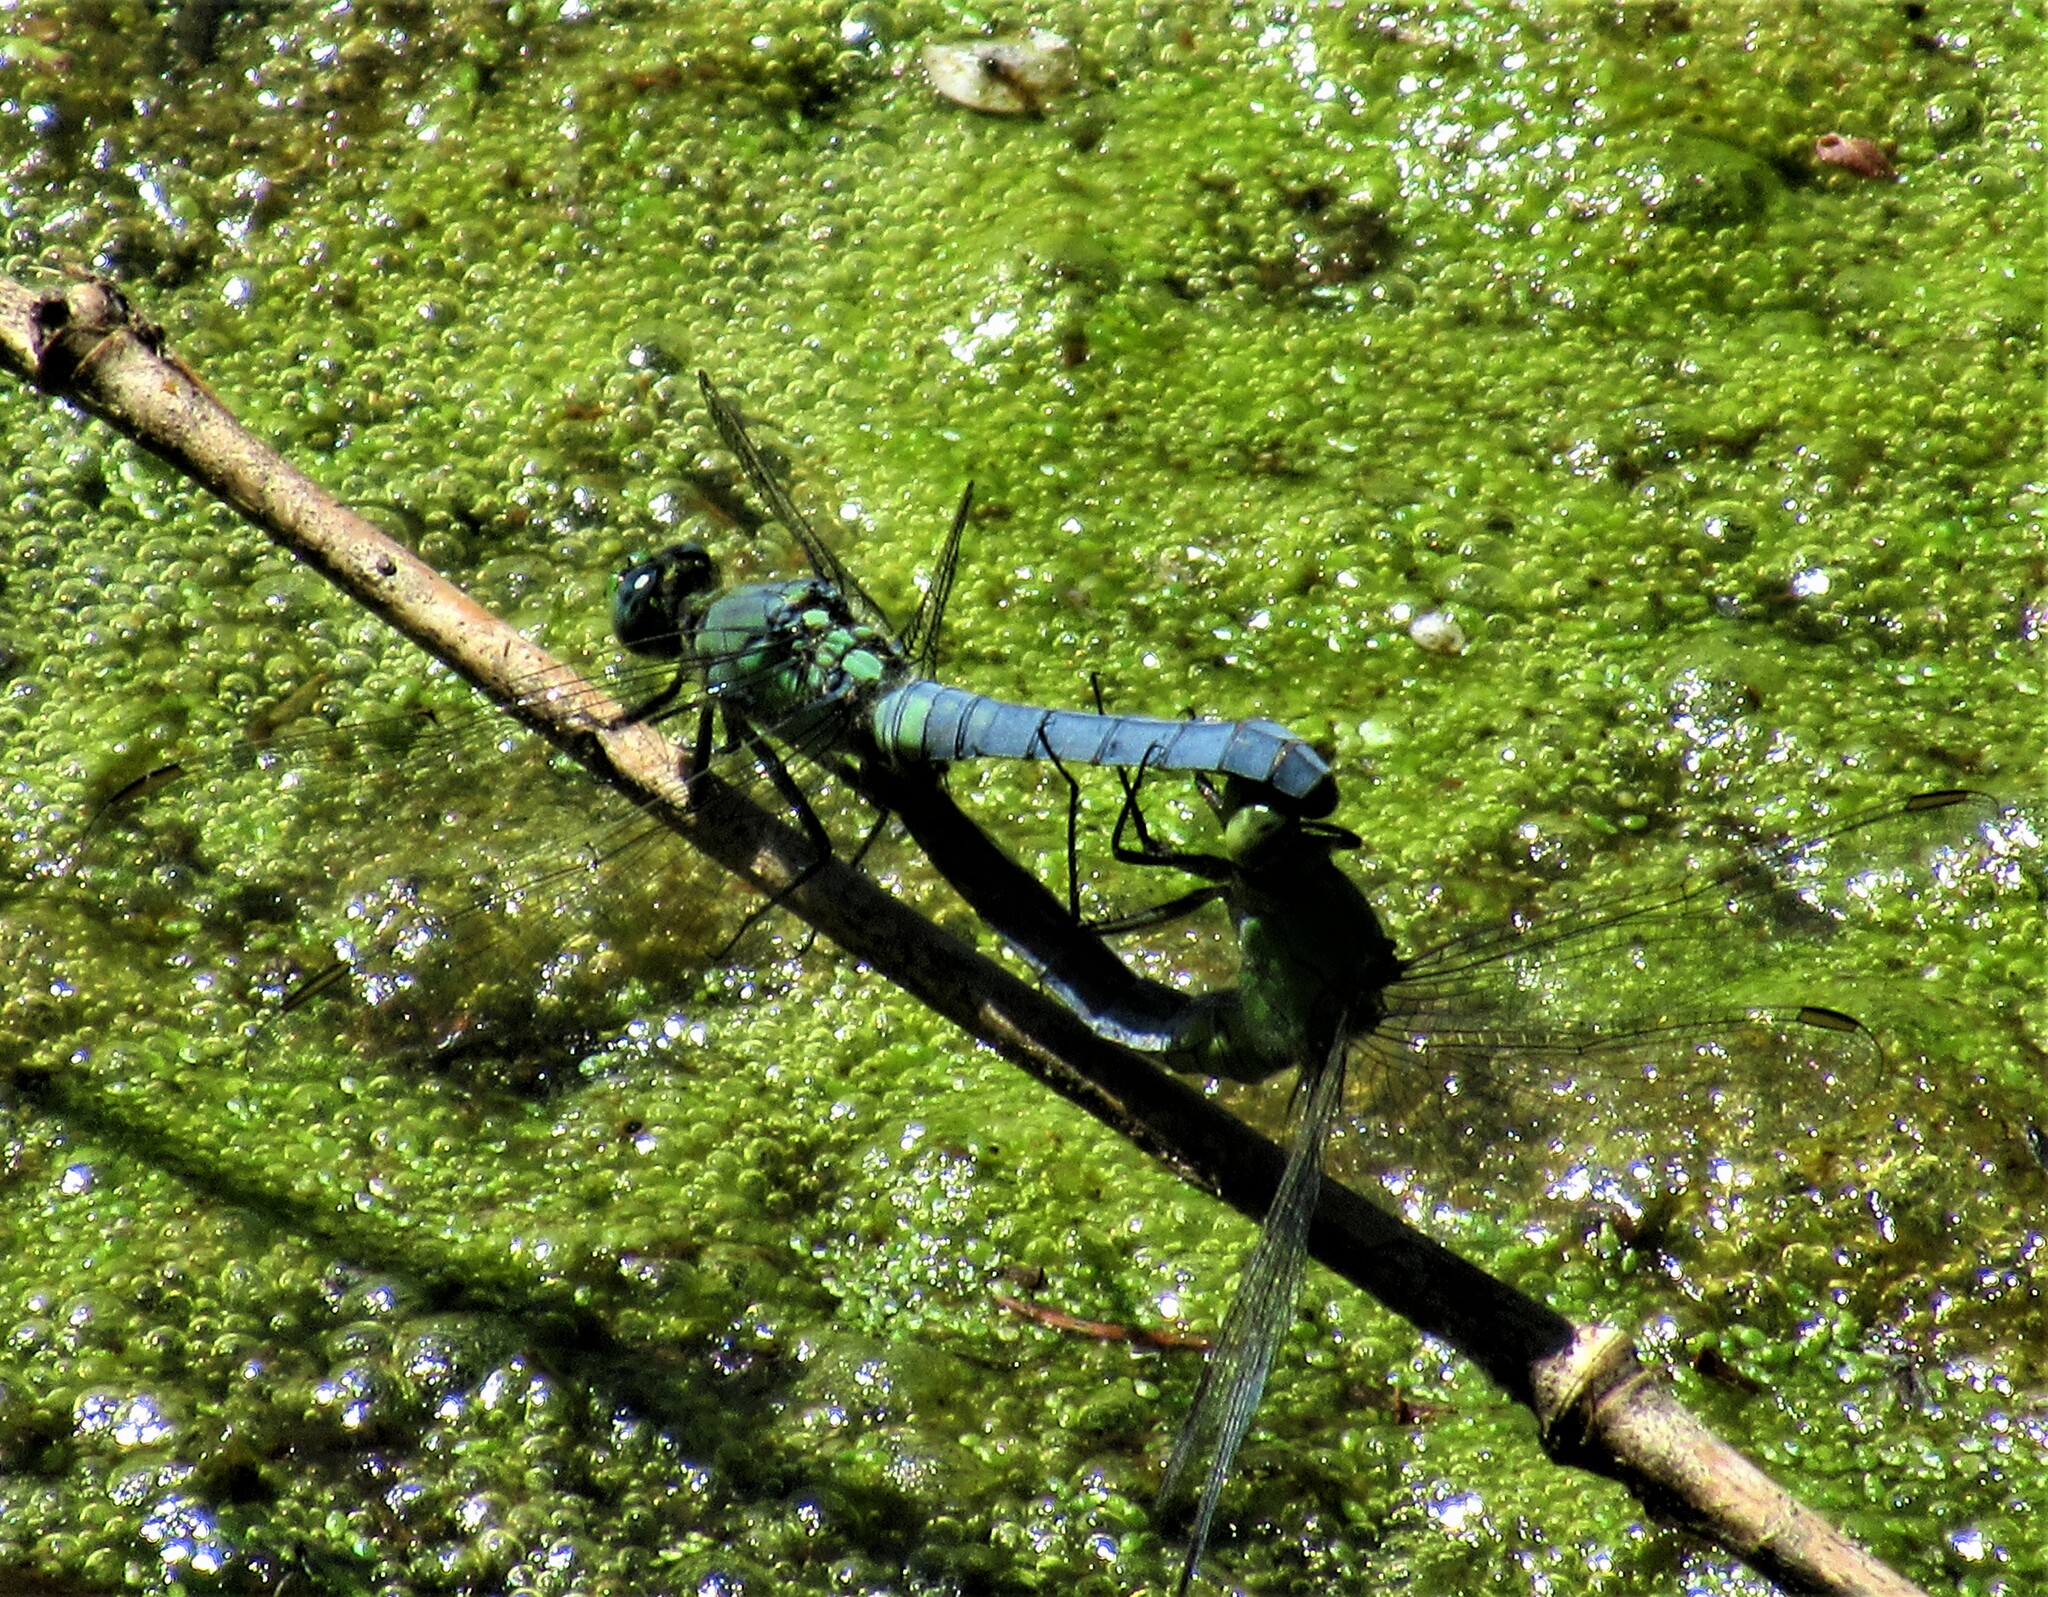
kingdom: Animalia
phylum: Arthropoda
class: Insecta
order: Odonata
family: Libellulidae
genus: Erythemis
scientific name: Erythemis collocata
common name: Western pondhawk
